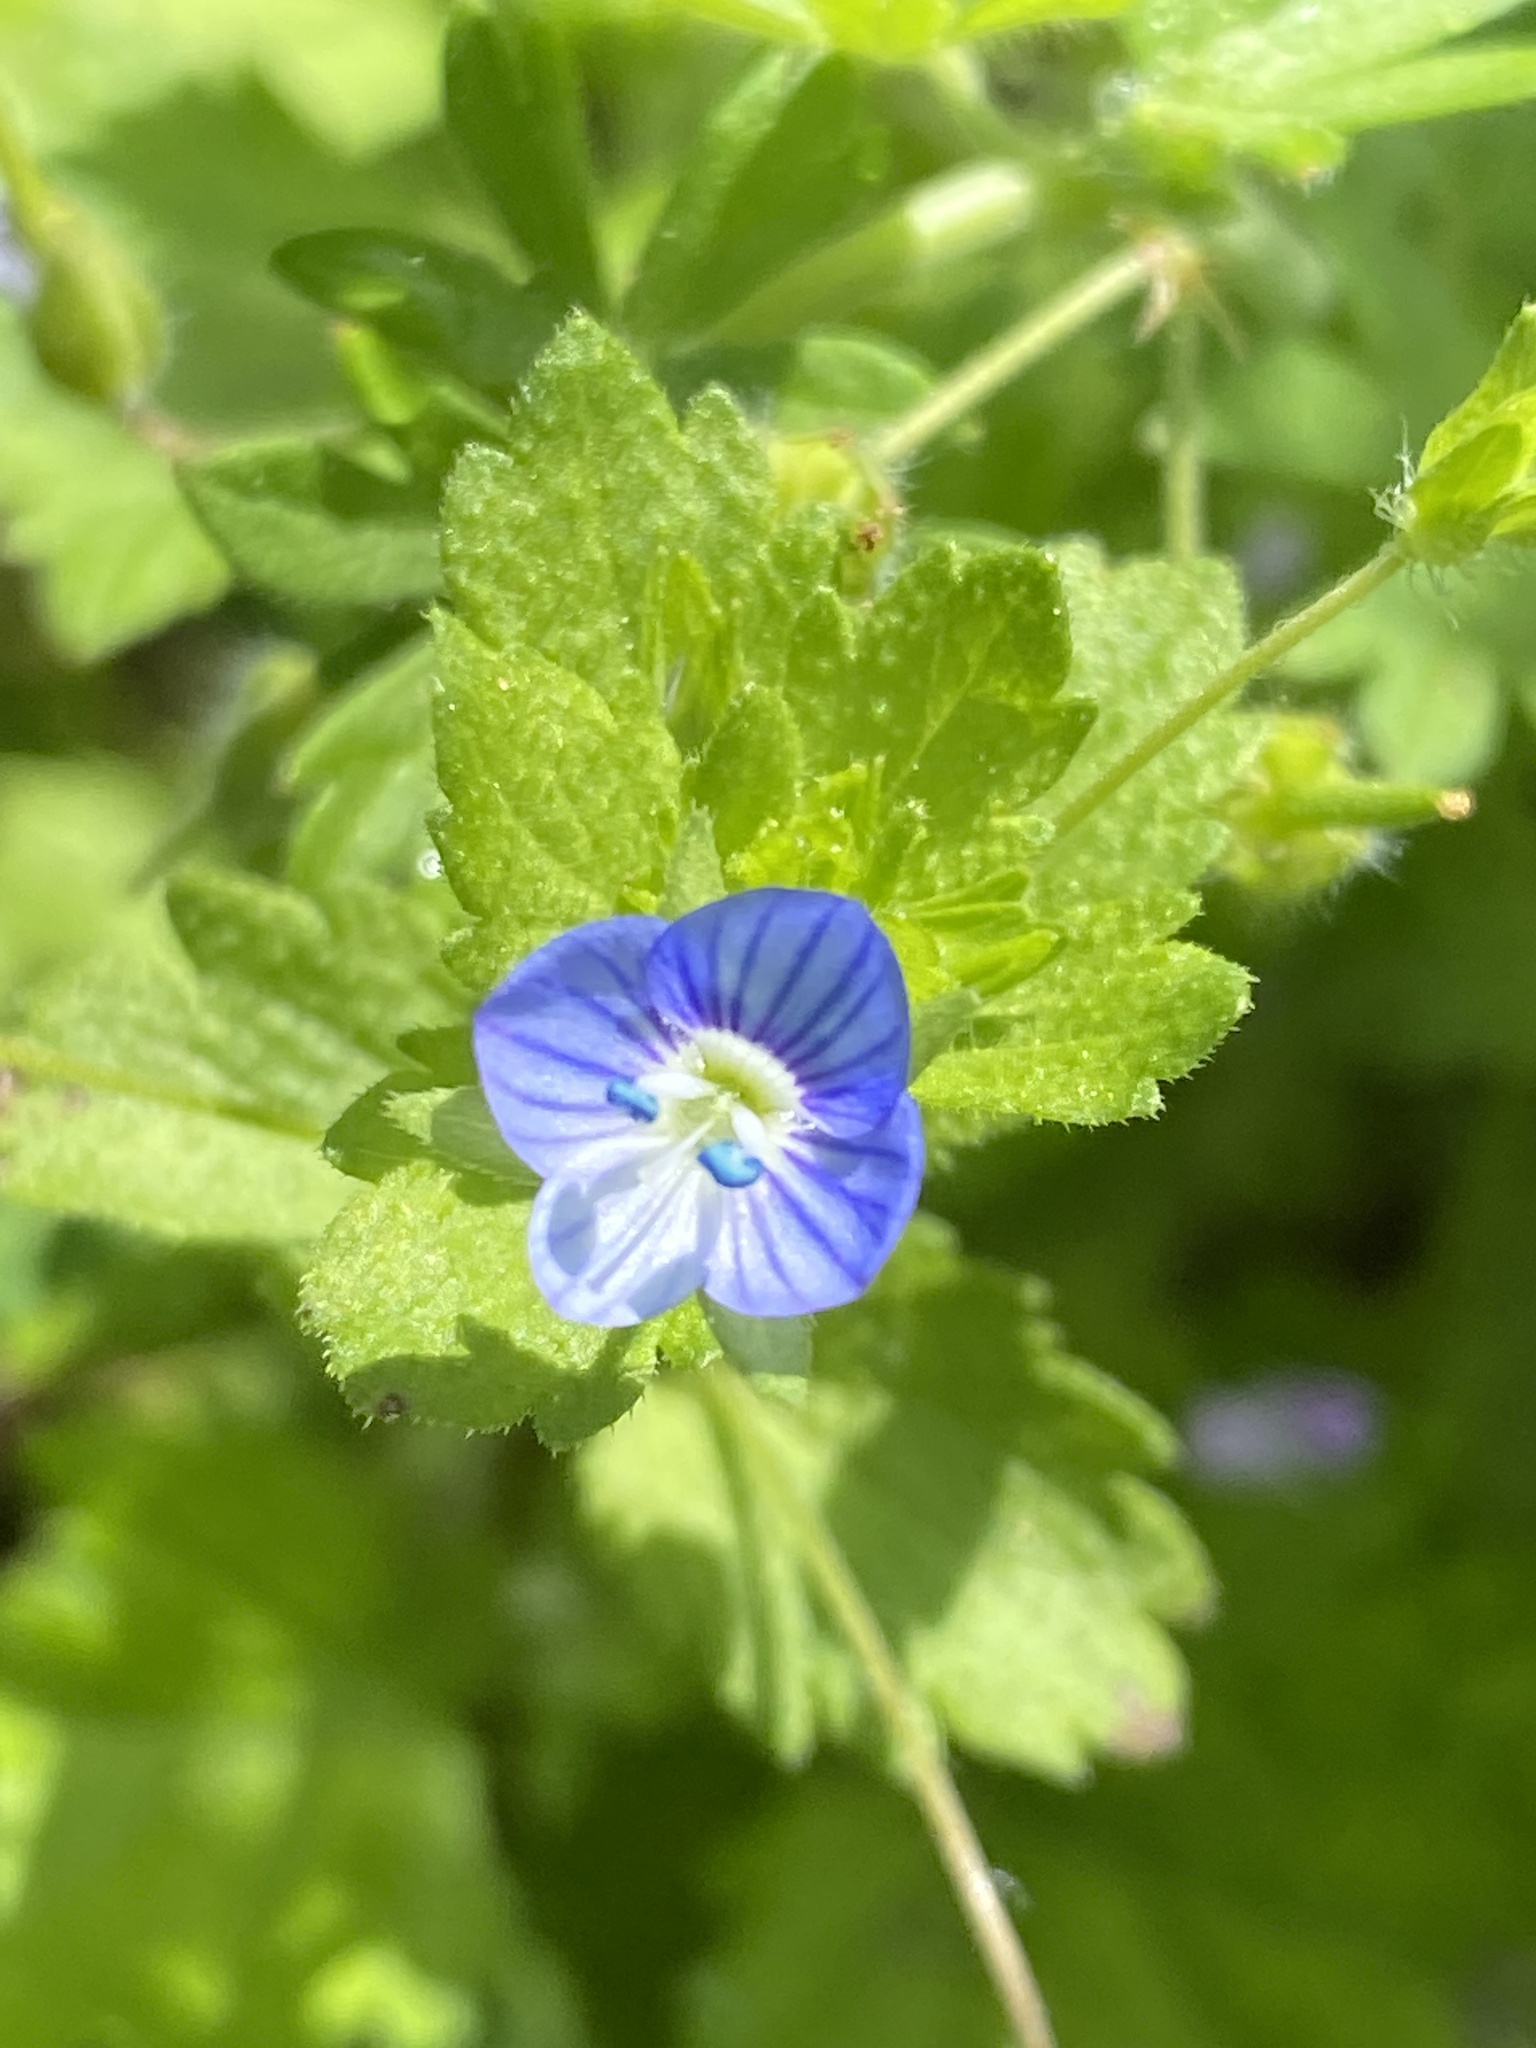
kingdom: Plantae
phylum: Tracheophyta
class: Magnoliopsida
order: Lamiales
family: Plantaginaceae
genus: Veronica
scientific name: Veronica persica
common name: Common field-speedwell
